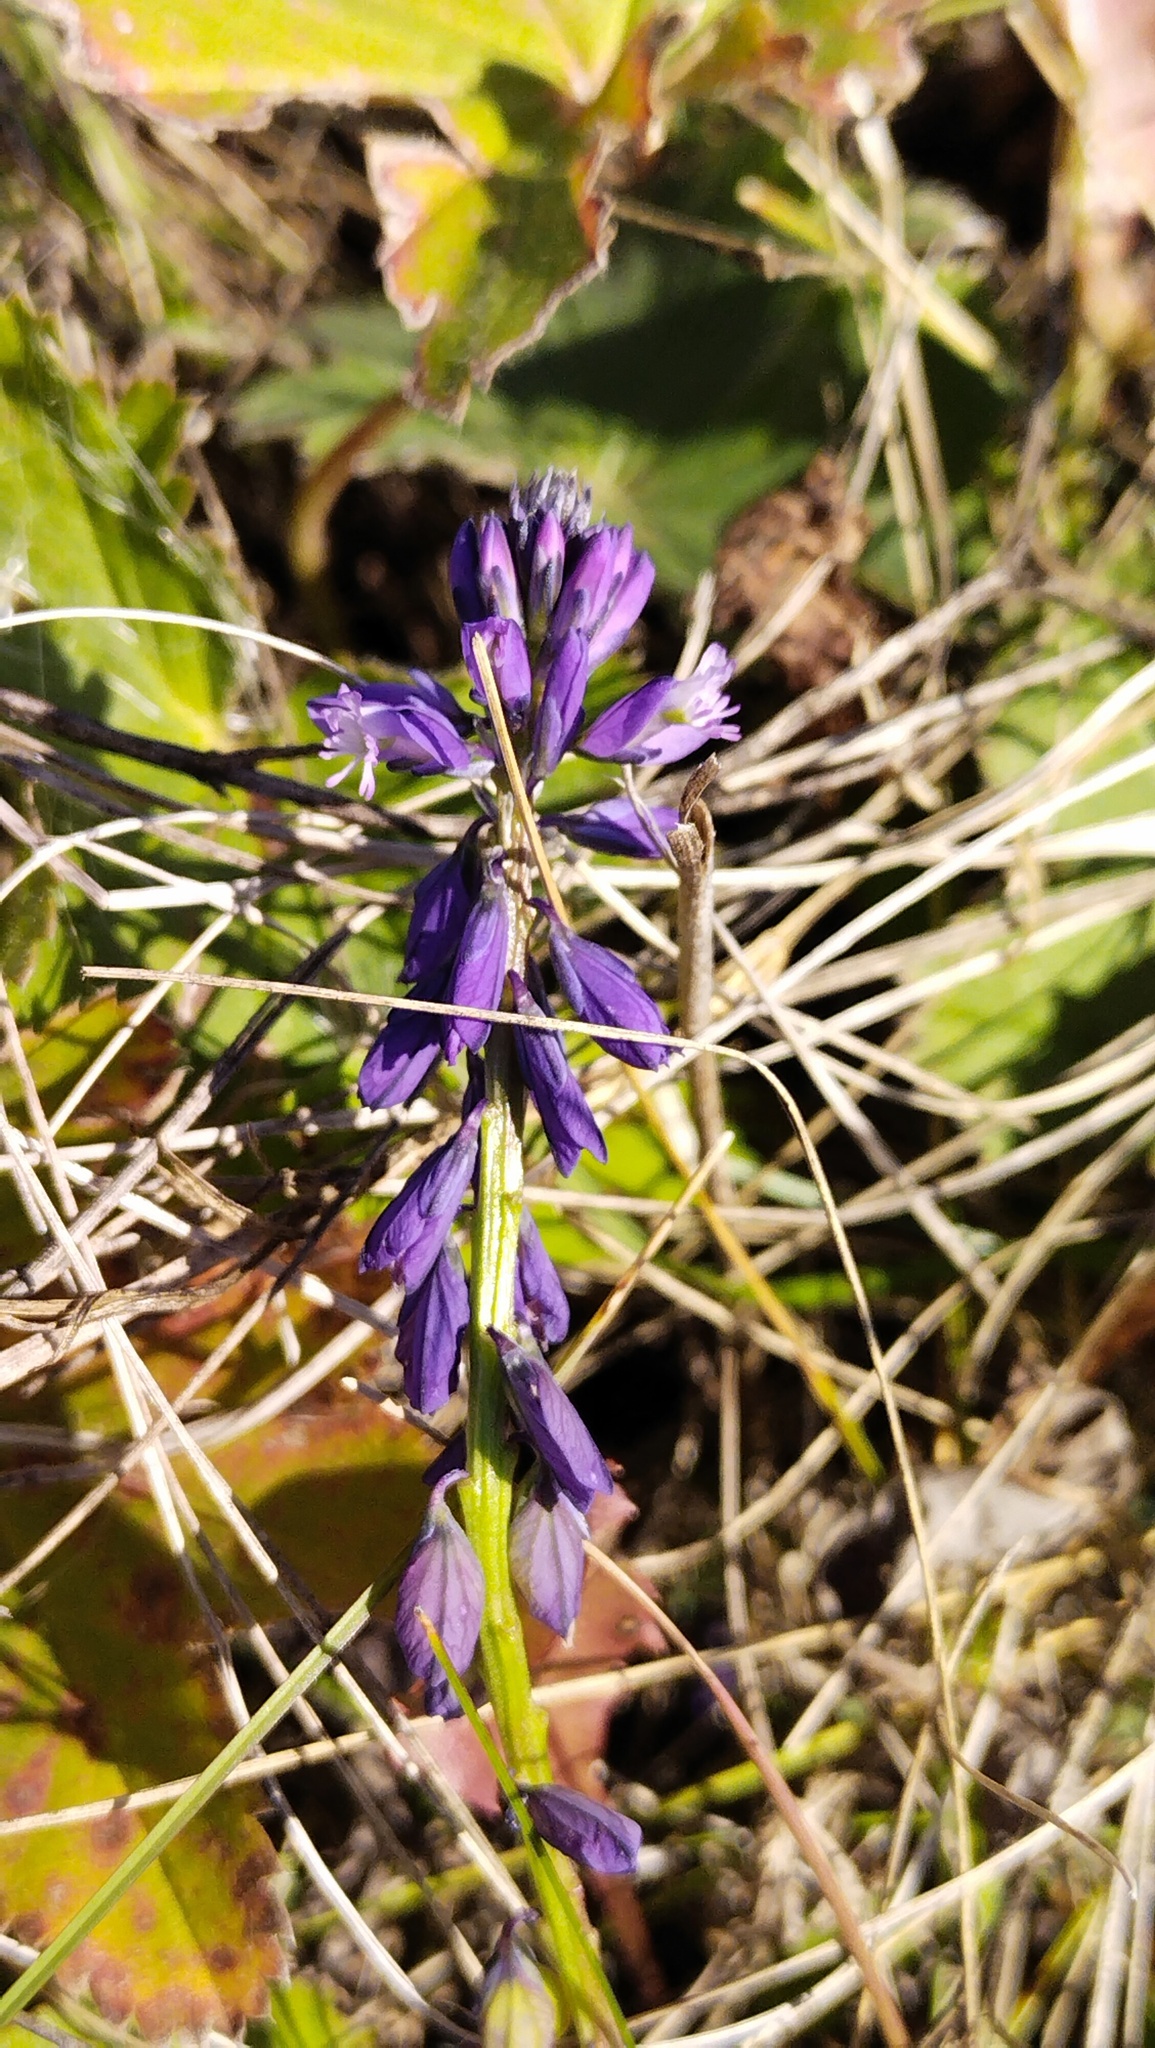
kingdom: Plantae
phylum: Tracheophyta
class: Magnoliopsida
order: Fabales
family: Polygalaceae
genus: Polygala
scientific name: Polygala comosa
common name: Tufted milkwort
